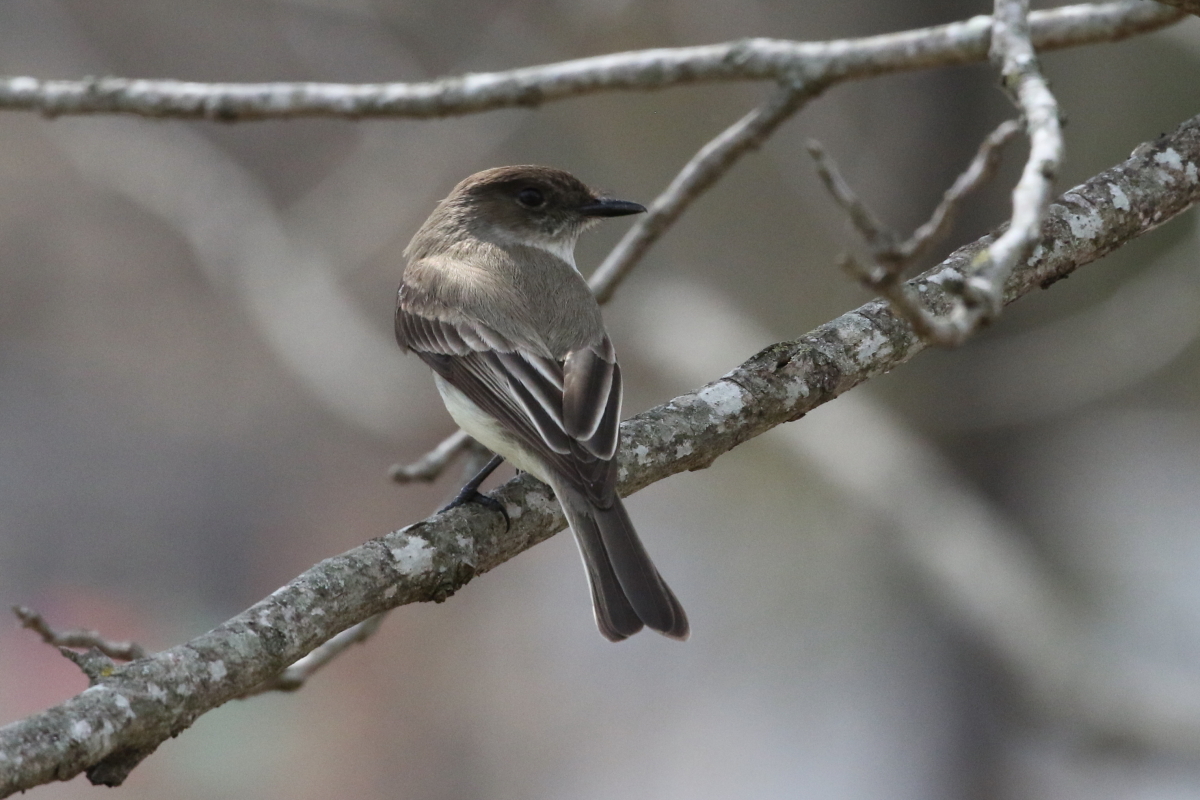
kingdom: Animalia
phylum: Chordata
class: Aves
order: Passeriformes
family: Tyrannidae
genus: Sayornis
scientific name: Sayornis phoebe
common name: Eastern phoebe
